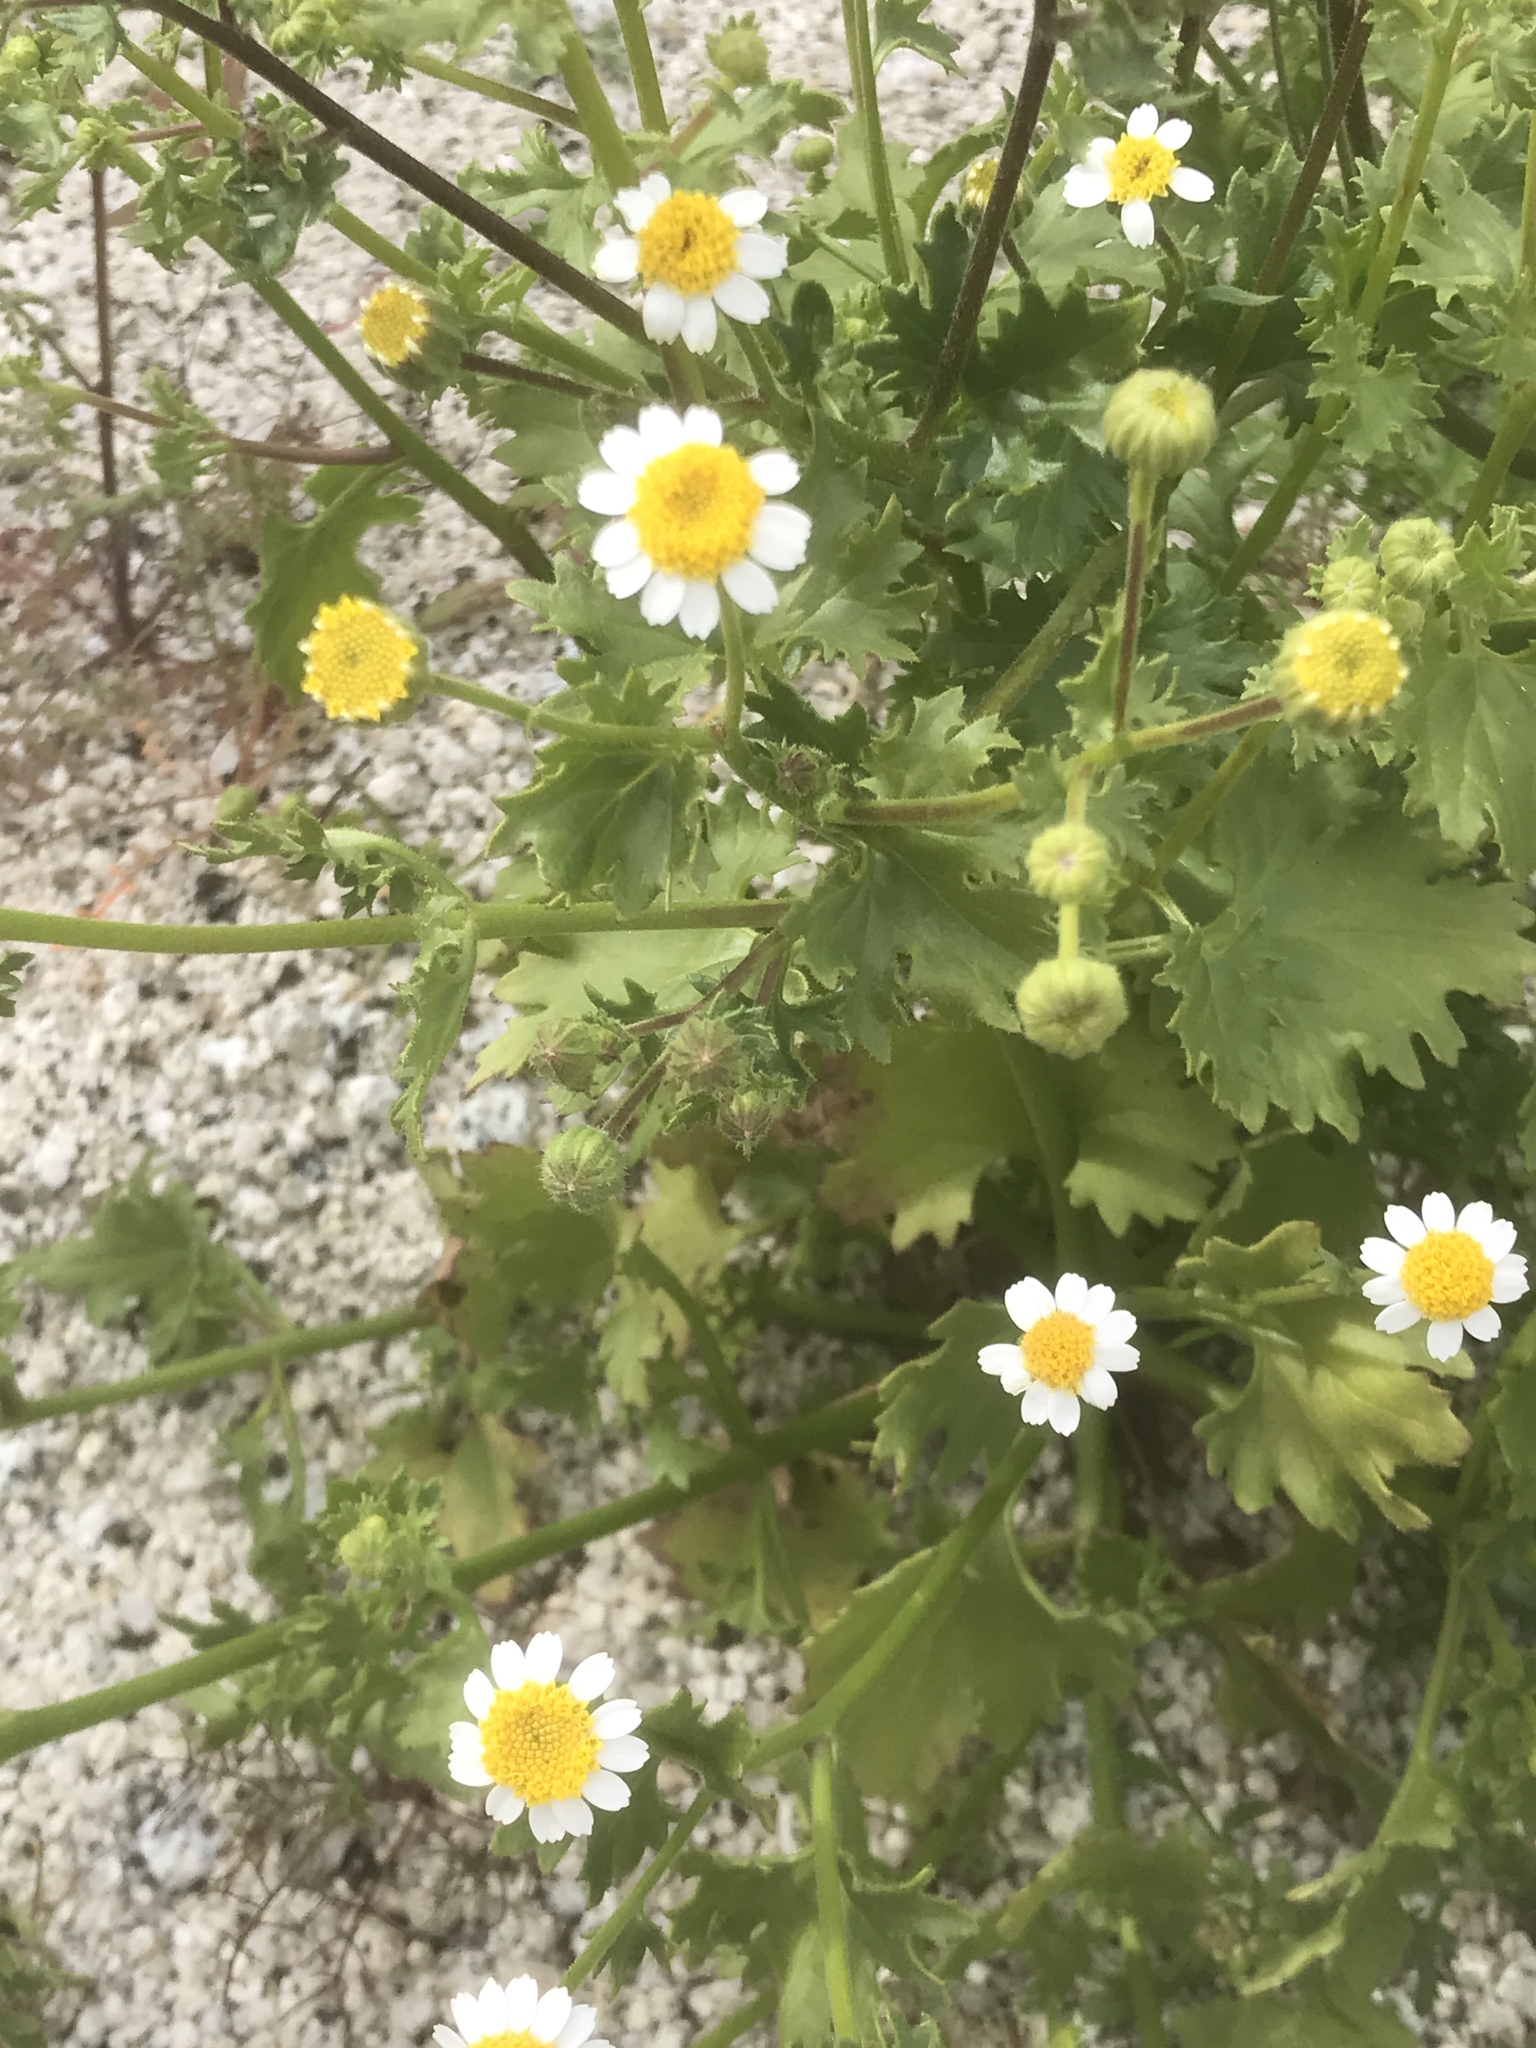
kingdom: Plantae
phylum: Tracheophyta
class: Magnoliopsida
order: Asterales
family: Asteraceae
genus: Laphamia
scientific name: Laphamia emoryi
